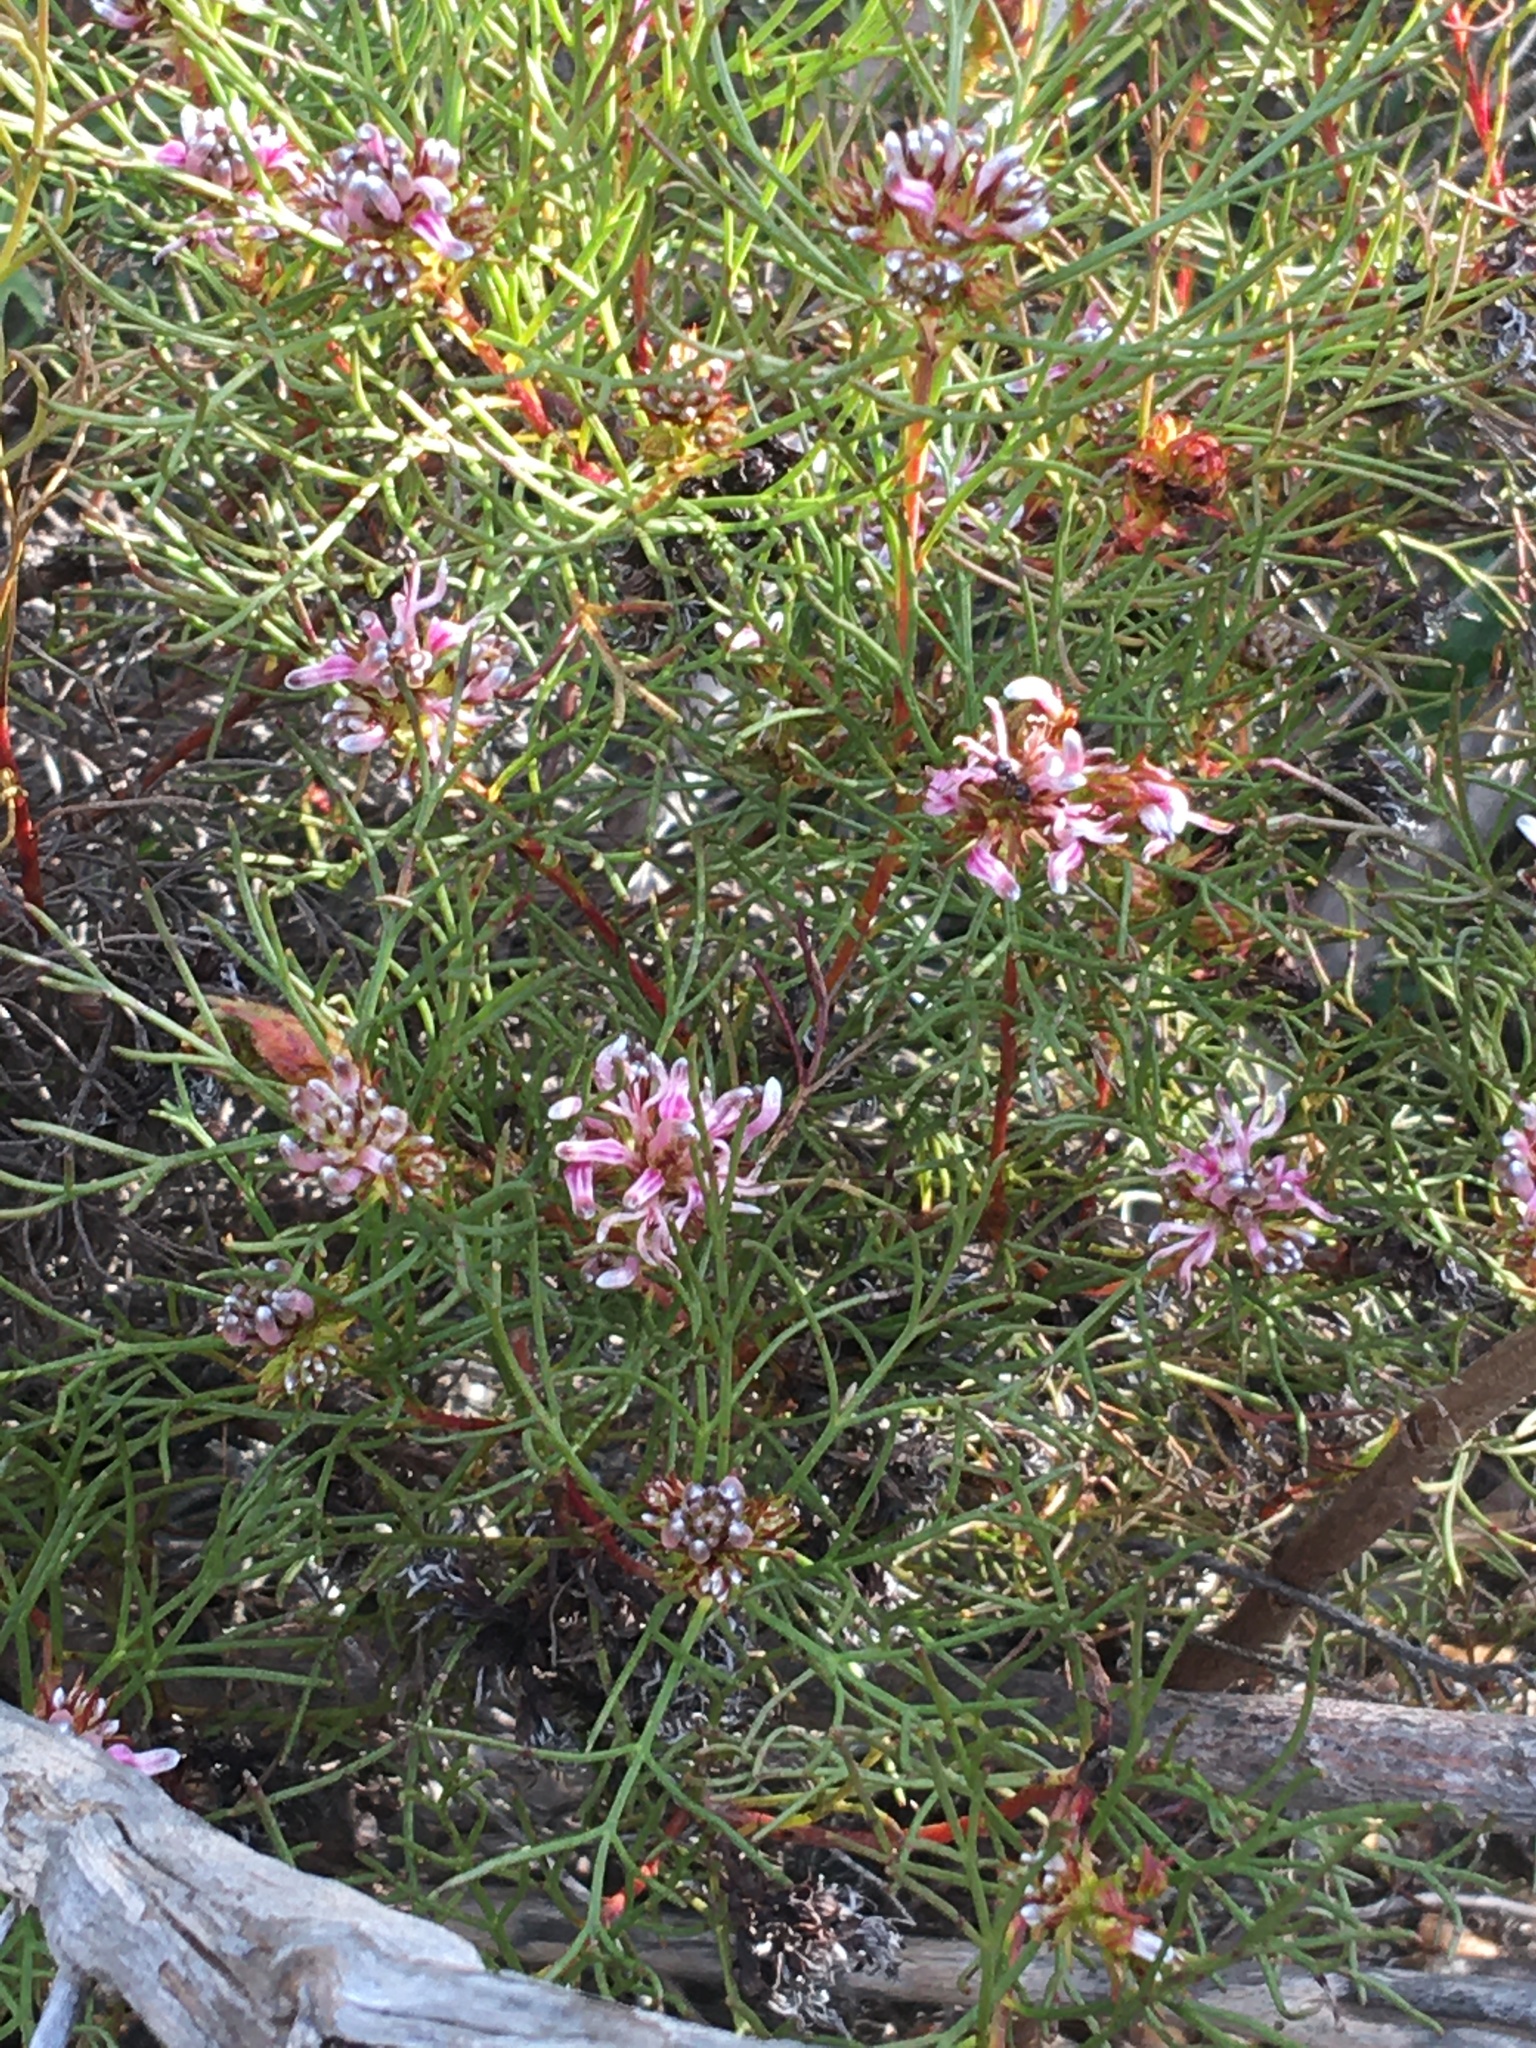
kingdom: Plantae
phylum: Tracheophyta
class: Magnoliopsida
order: Proteales
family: Proteaceae
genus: Serruria
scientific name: Serruria bolusii
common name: Agulhas spiderhead
